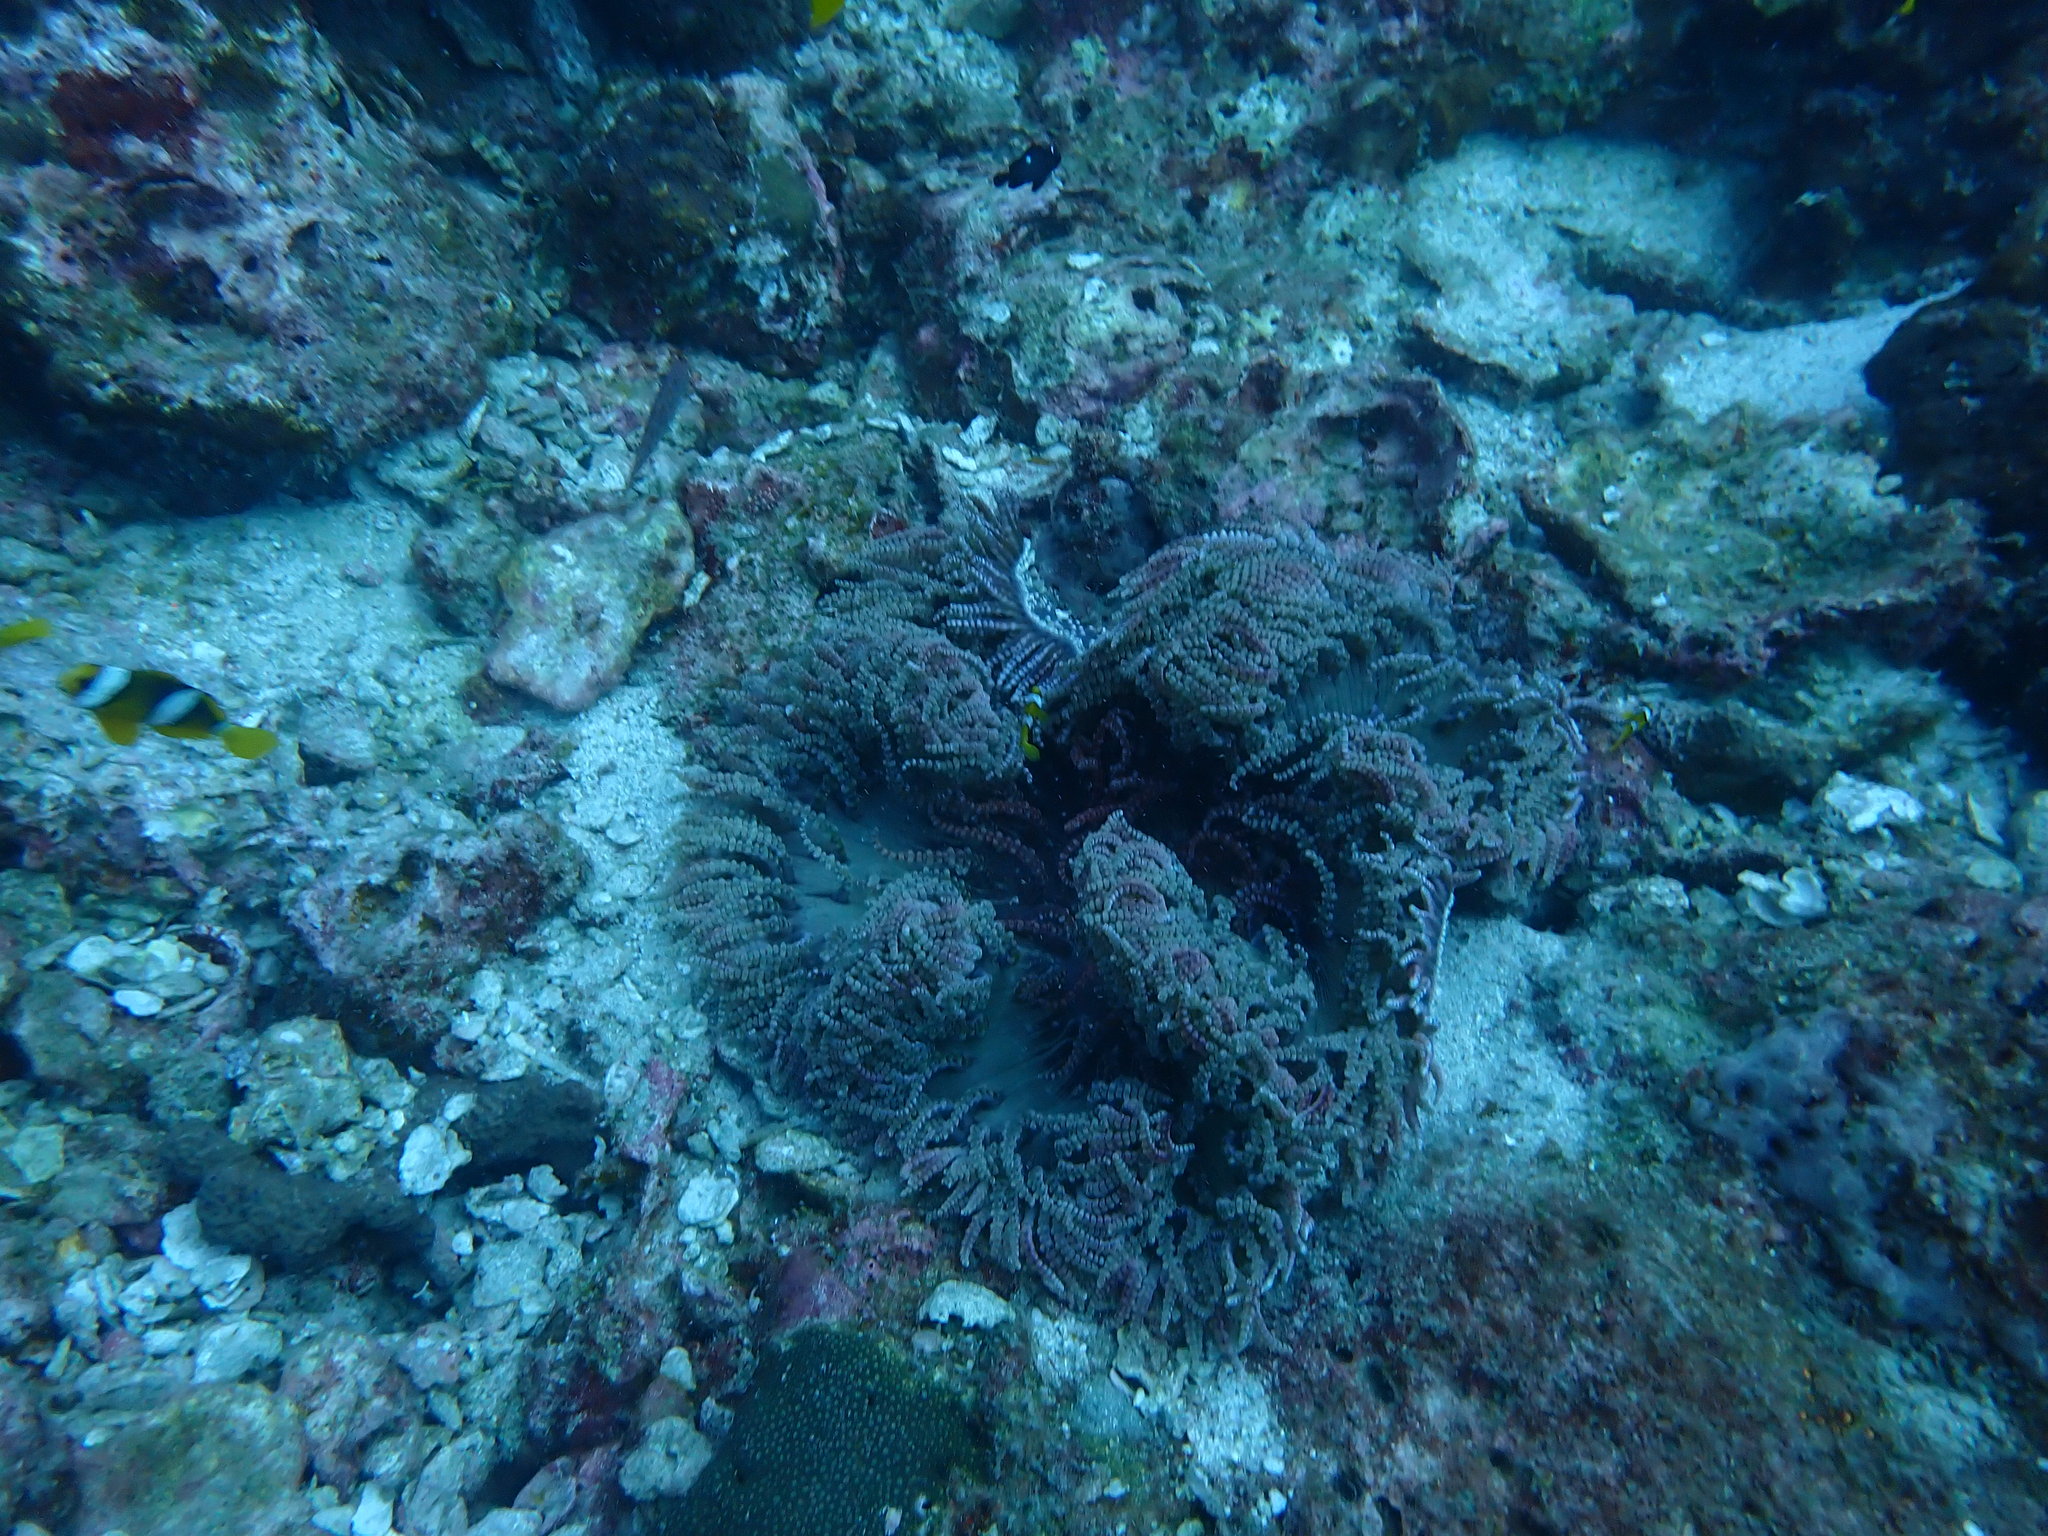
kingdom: Animalia
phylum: Cnidaria
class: Anthozoa
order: Actiniaria
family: Heteractidae
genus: Heteractis
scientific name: Heteractis aurora
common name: Beaded sea anemone
